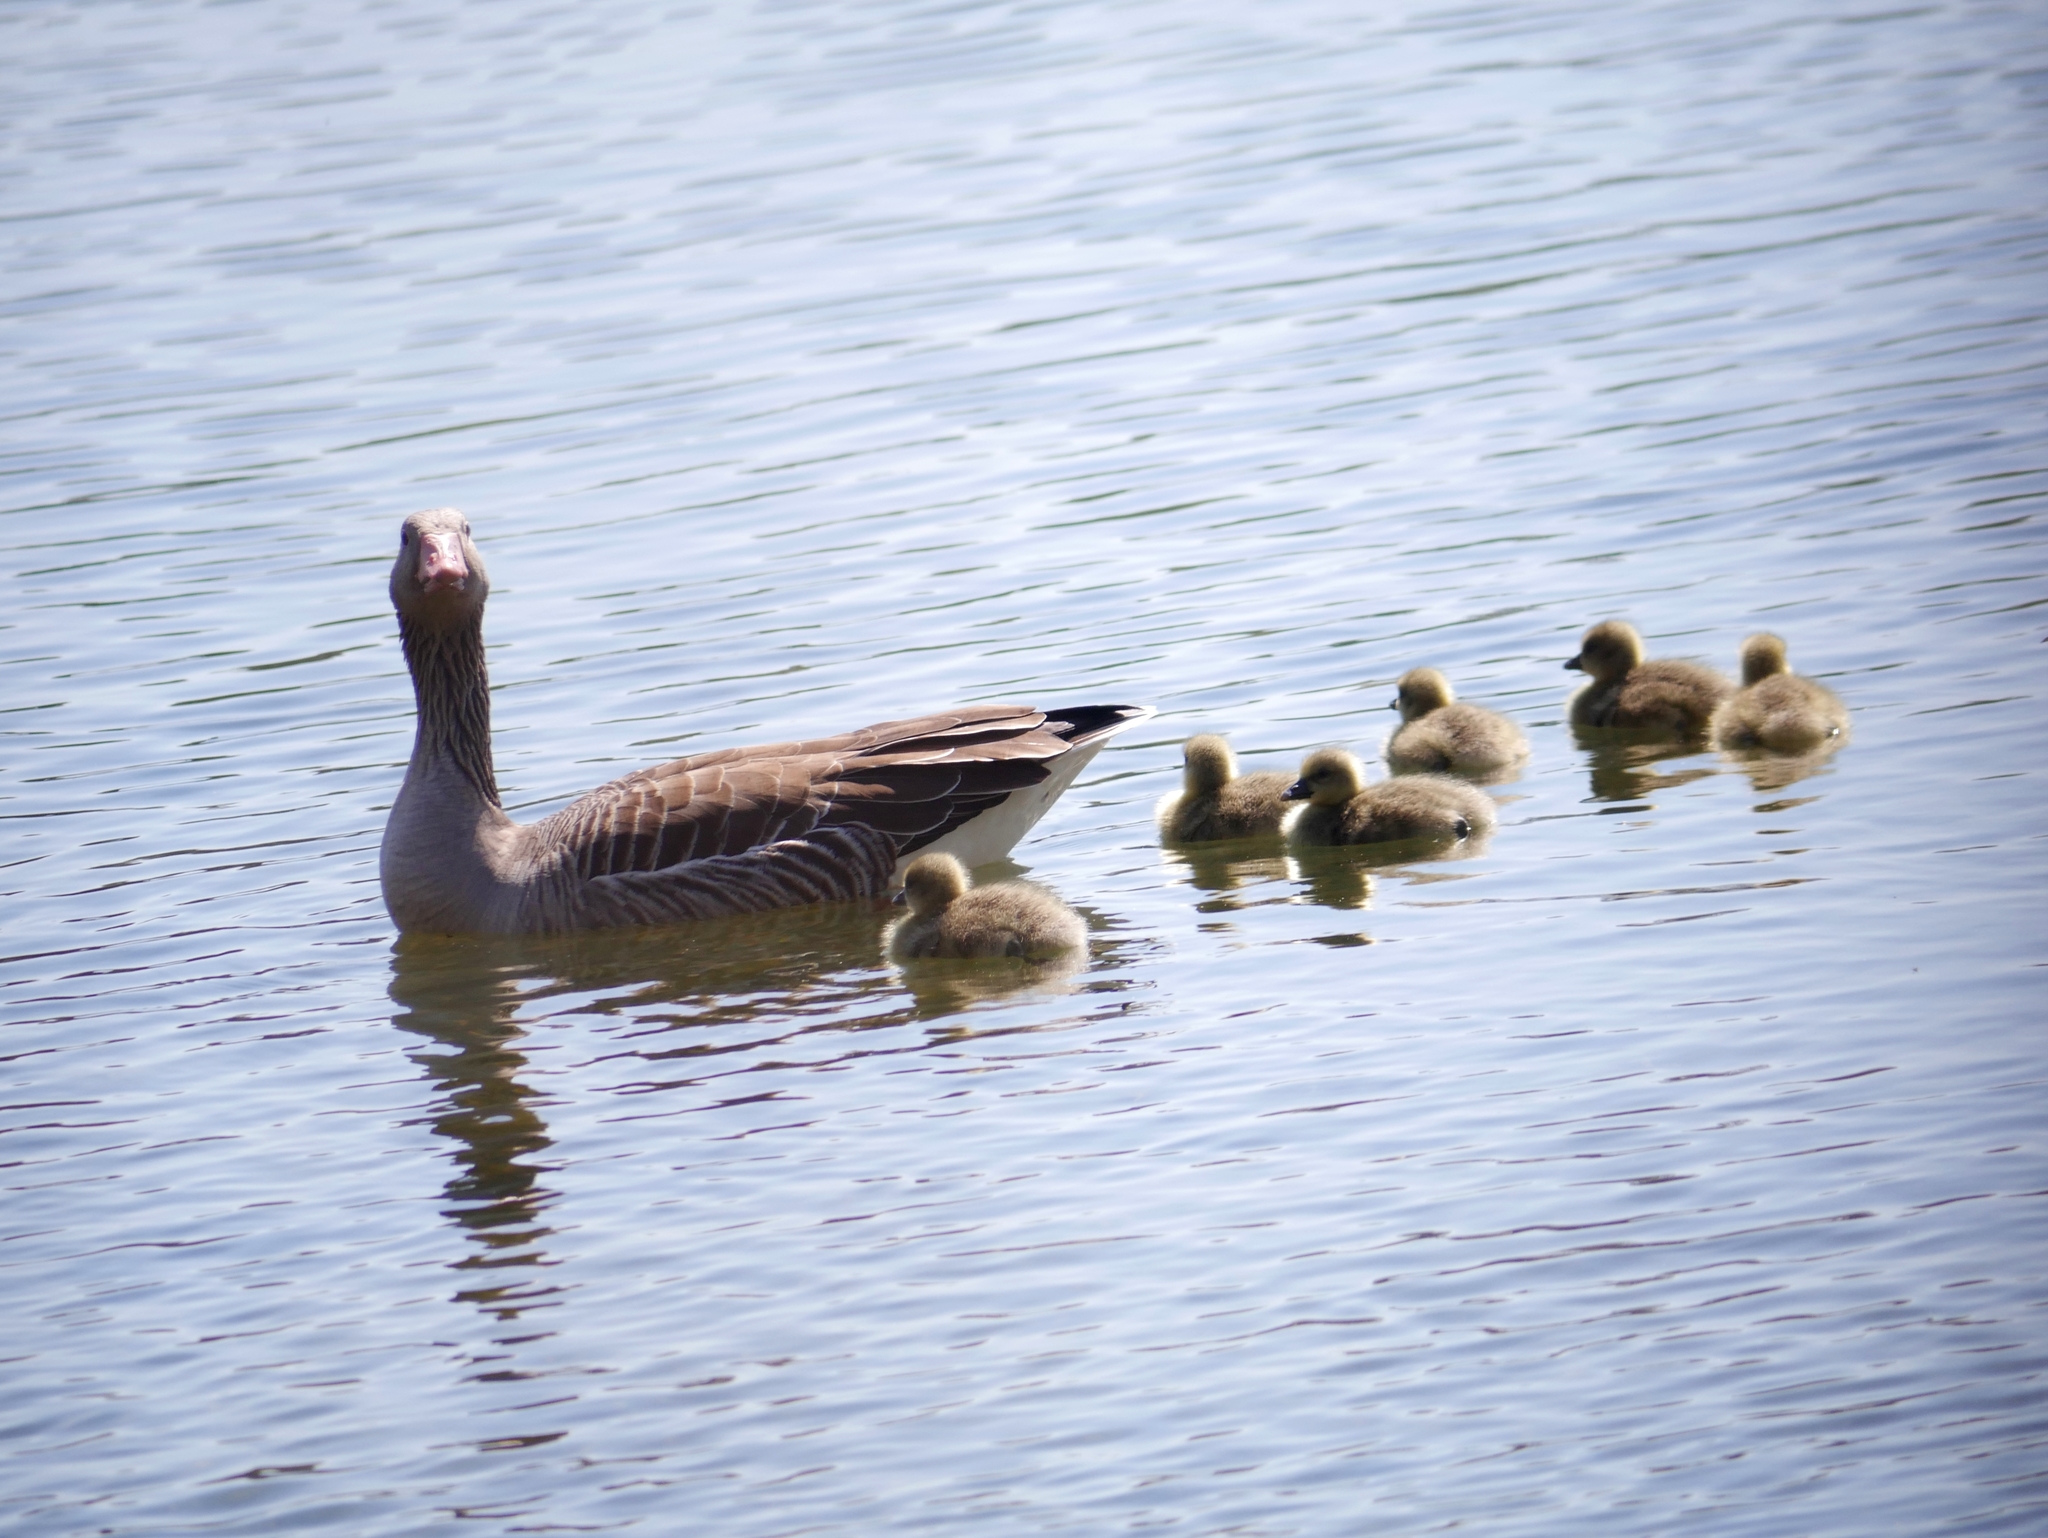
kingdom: Animalia
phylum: Chordata
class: Aves
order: Anseriformes
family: Anatidae
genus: Anser
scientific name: Anser anser
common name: Greylag goose
